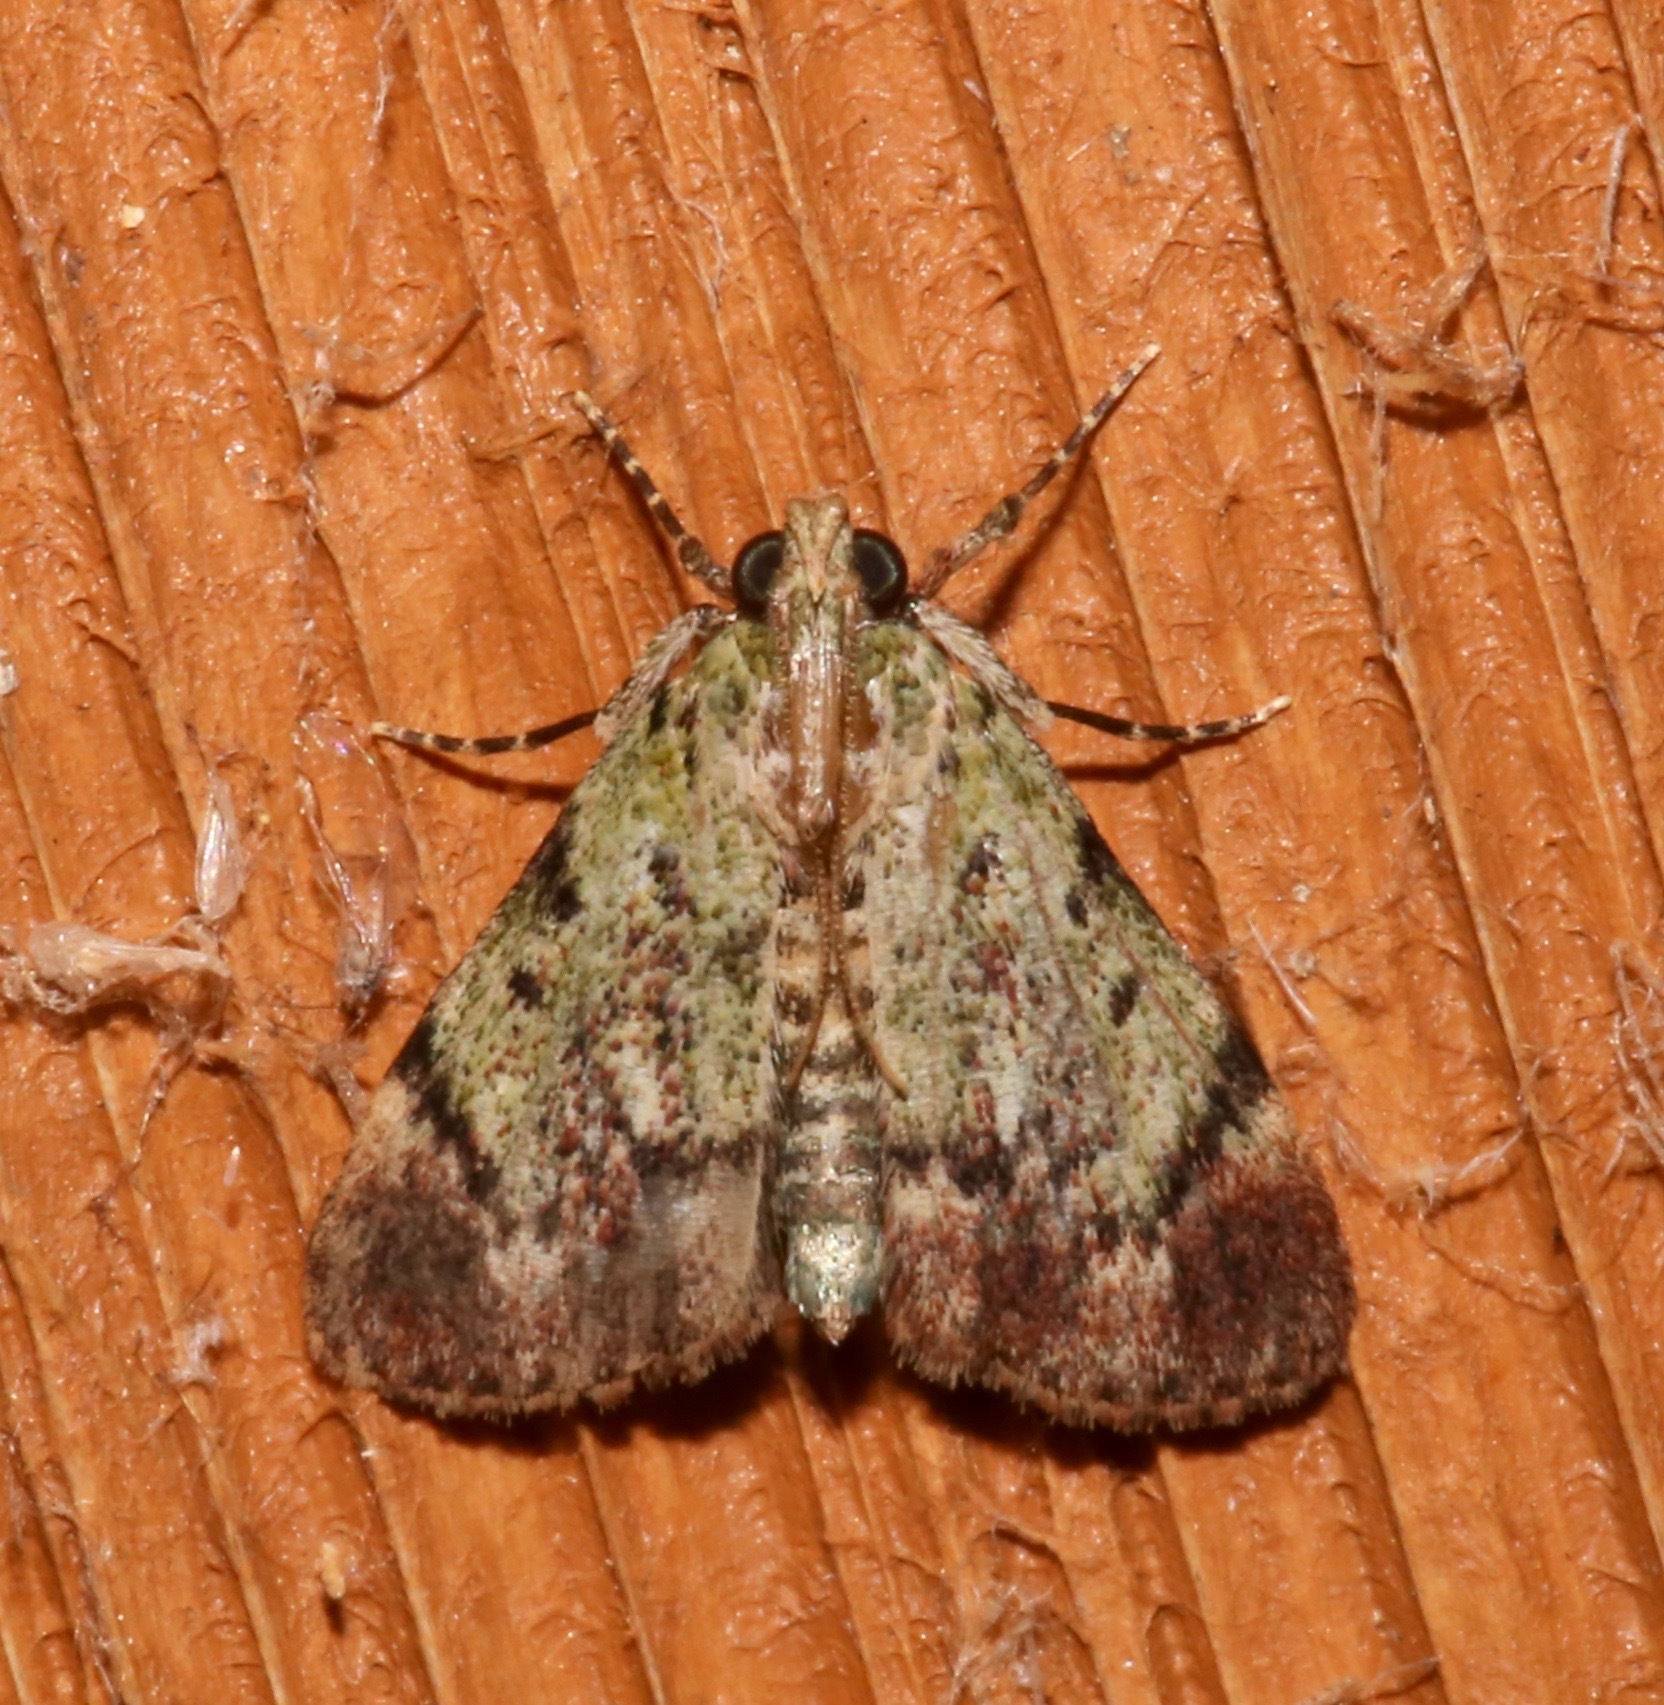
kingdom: Animalia
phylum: Arthropoda
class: Insecta
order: Lepidoptera
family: Pyralidae
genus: Epipaschia
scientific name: Epipaschia superatalis
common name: Dimorphic macalla moth
